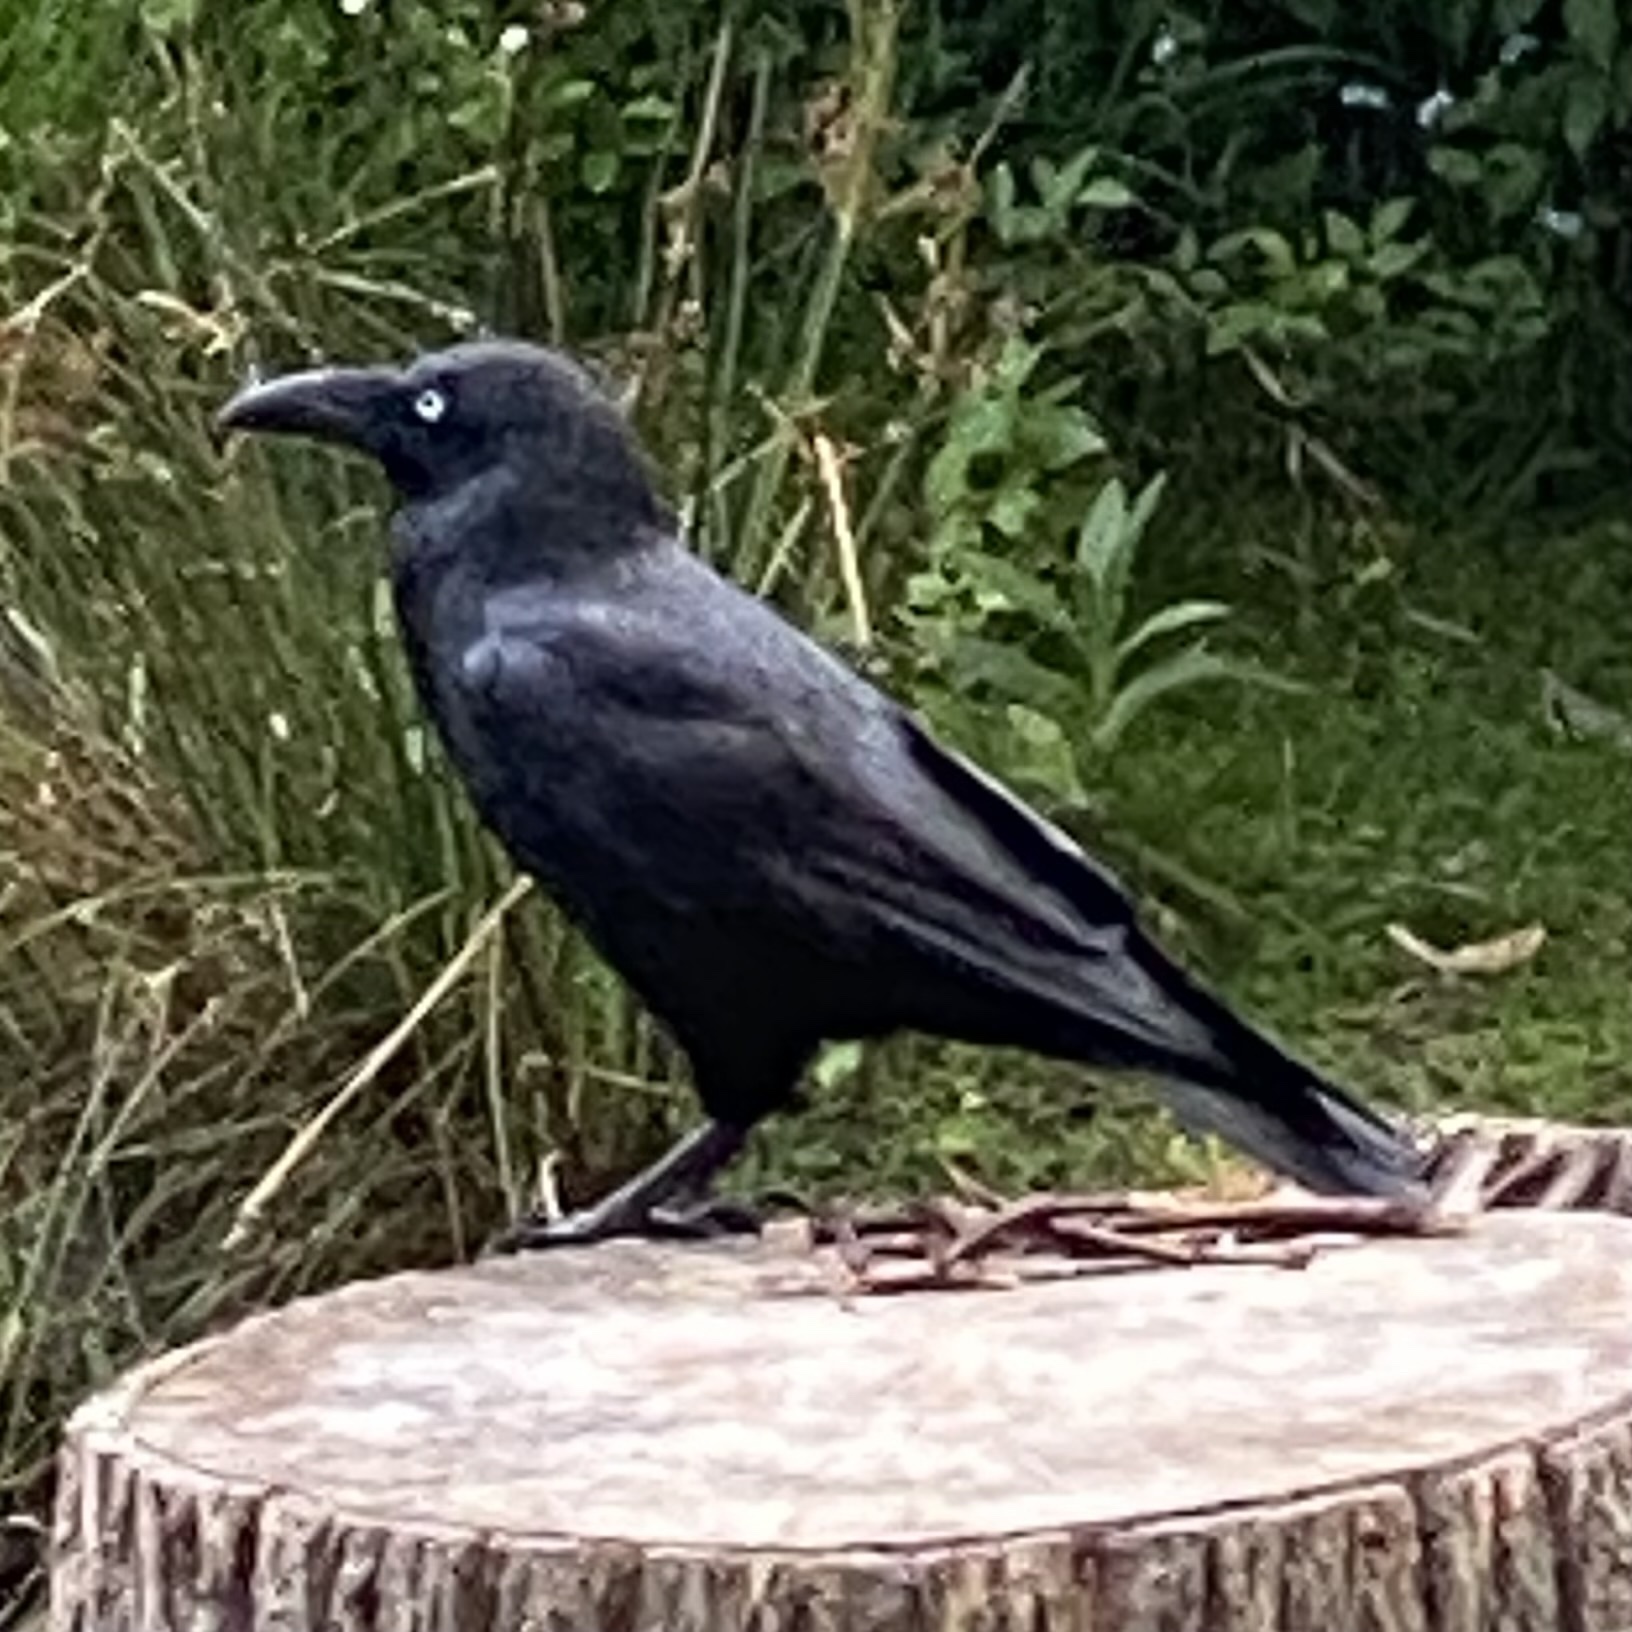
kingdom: Animalia
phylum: Chordata
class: Aves
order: Passeriformes
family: Corvidae
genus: Corvus
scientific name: Corvus tasmanicus
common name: Forest raven
